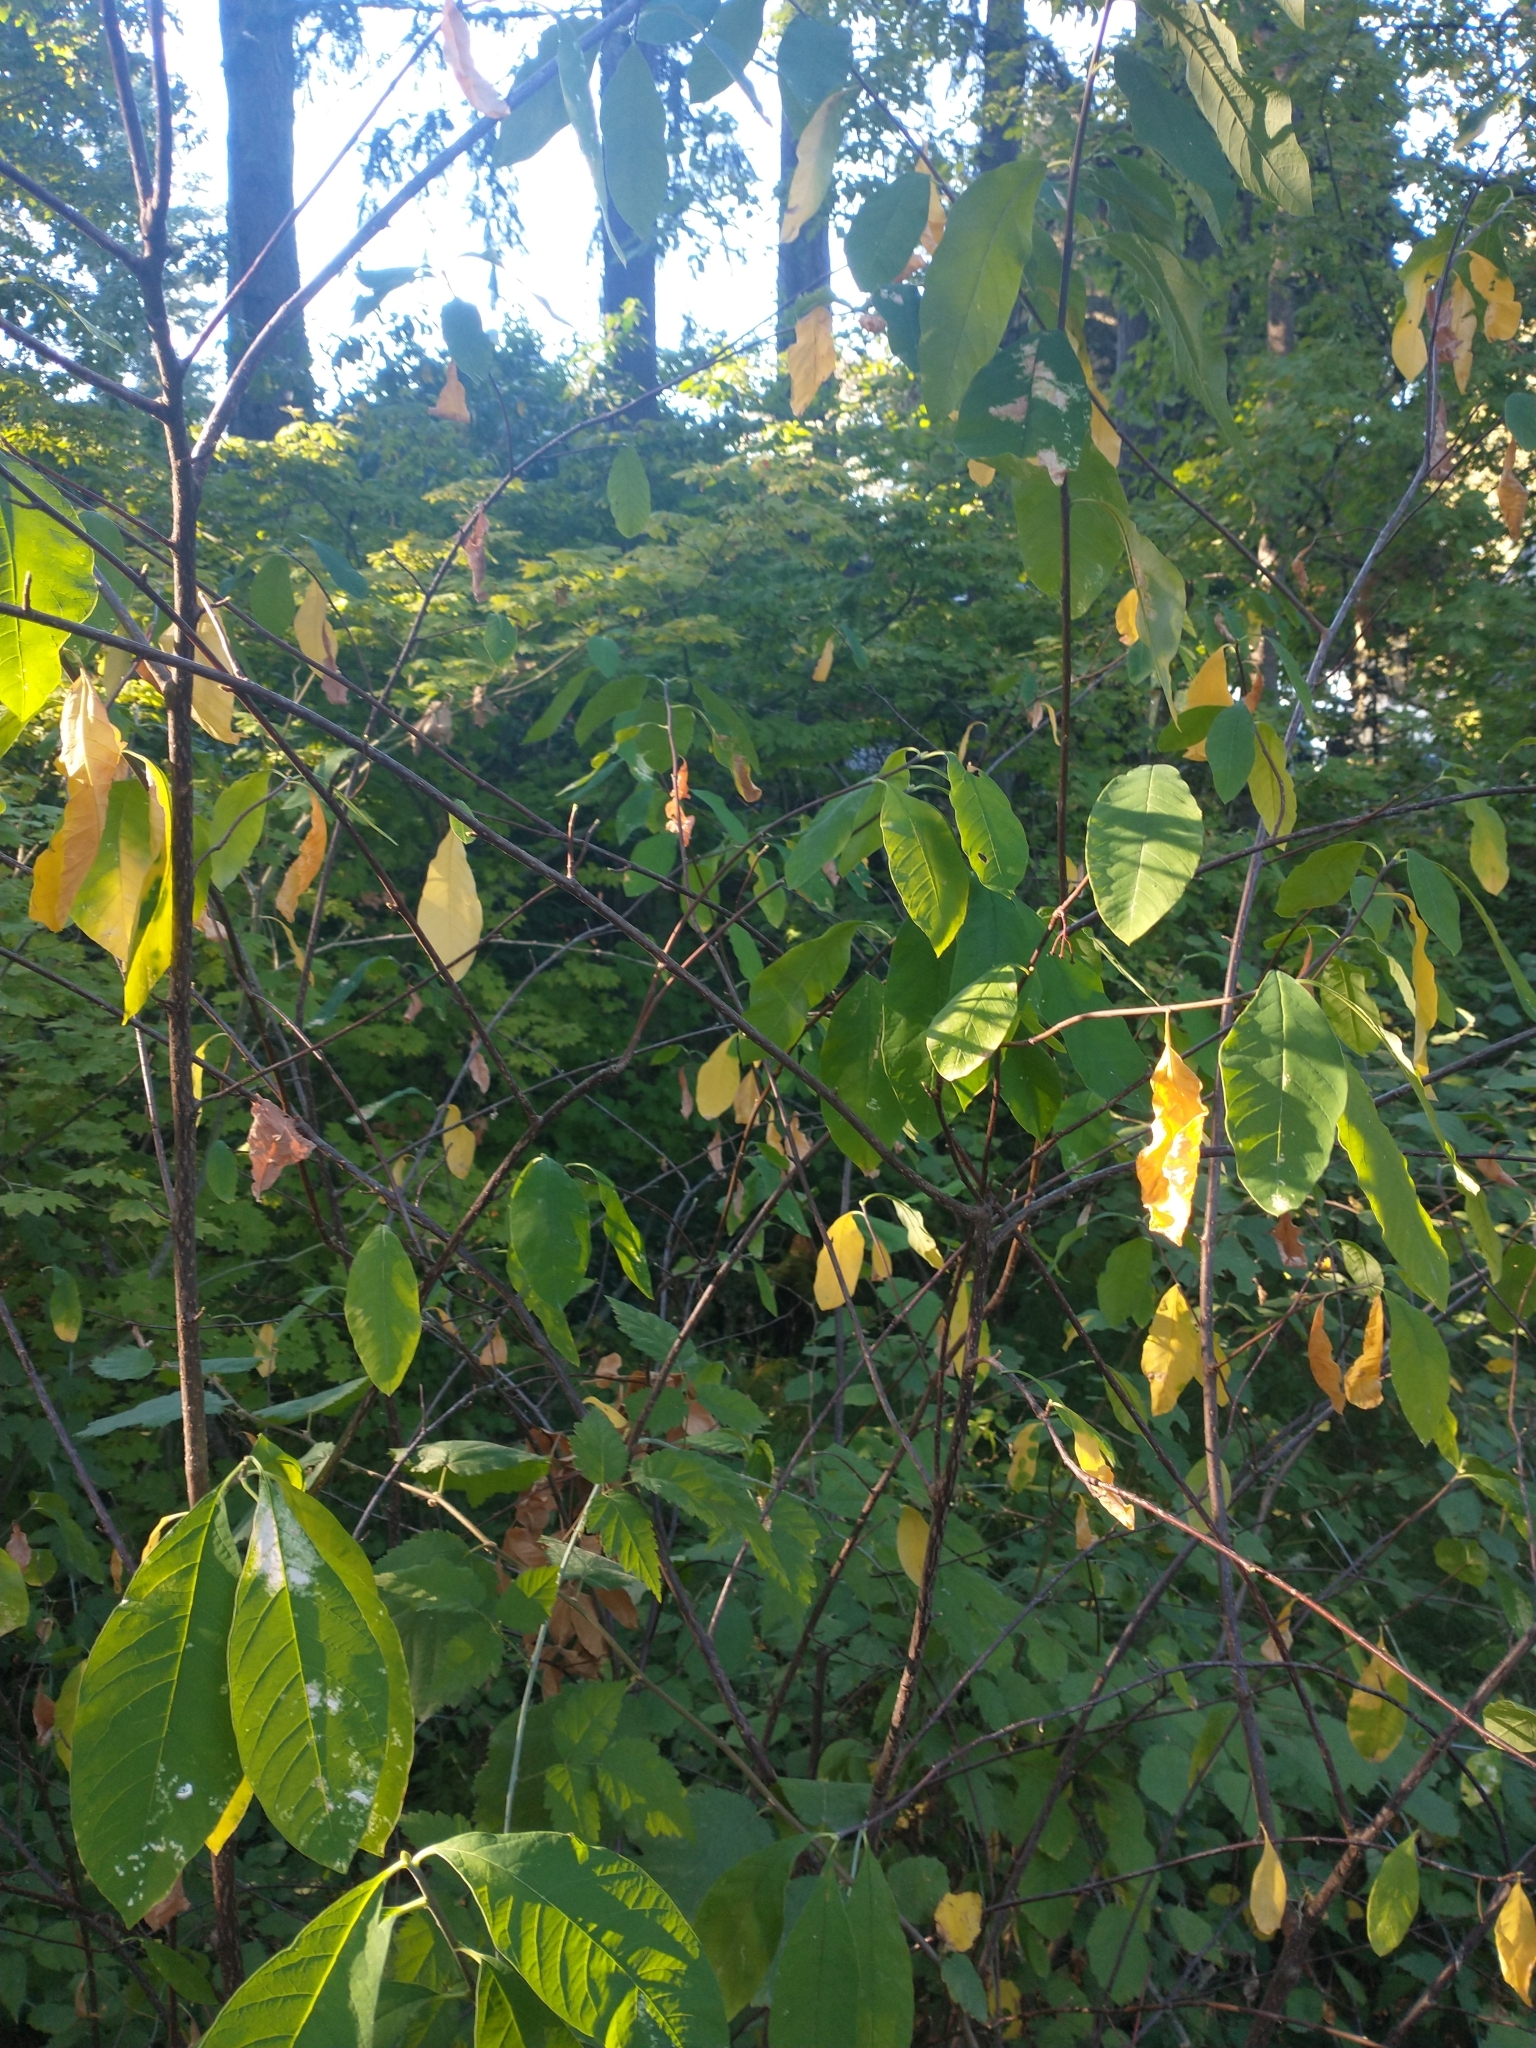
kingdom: Plantae
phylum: Tracheophyta
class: Magnoliopsida
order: Rosales
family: Rosaceae
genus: Oemleria
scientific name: Oemleria cerasiformis
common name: Osoberry
